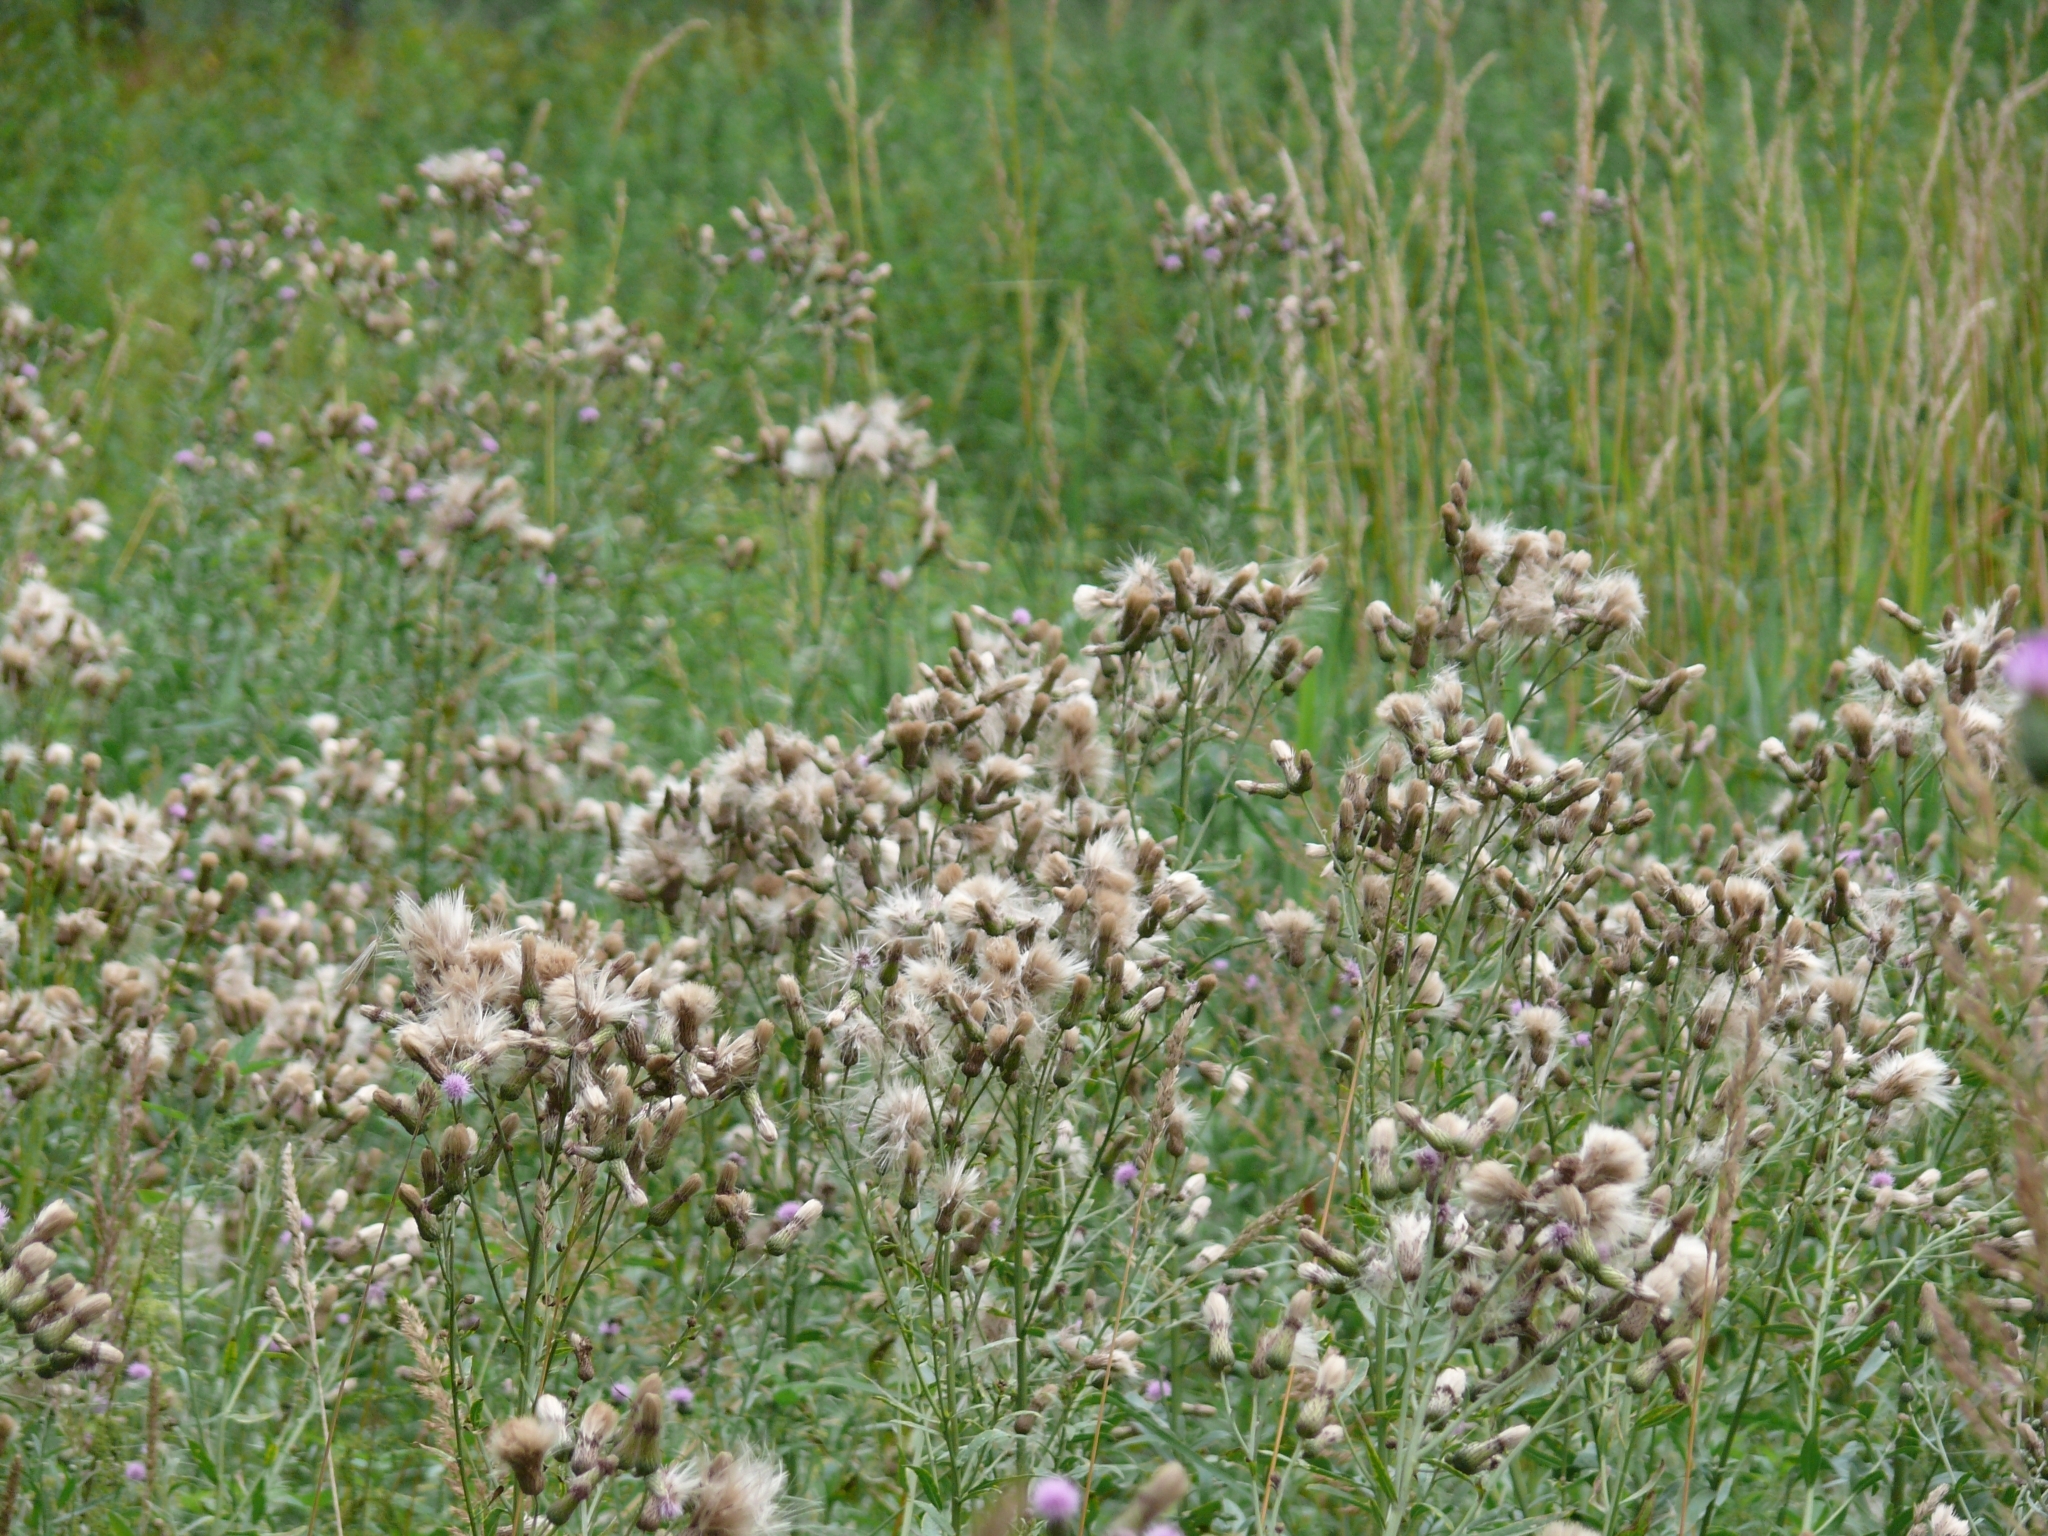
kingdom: Plantae
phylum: Tracheophyta
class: Magnoliopsida
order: Asterales
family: Asteraceae
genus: Cirsium
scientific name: Cirsium arvense
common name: Creeping thistle
